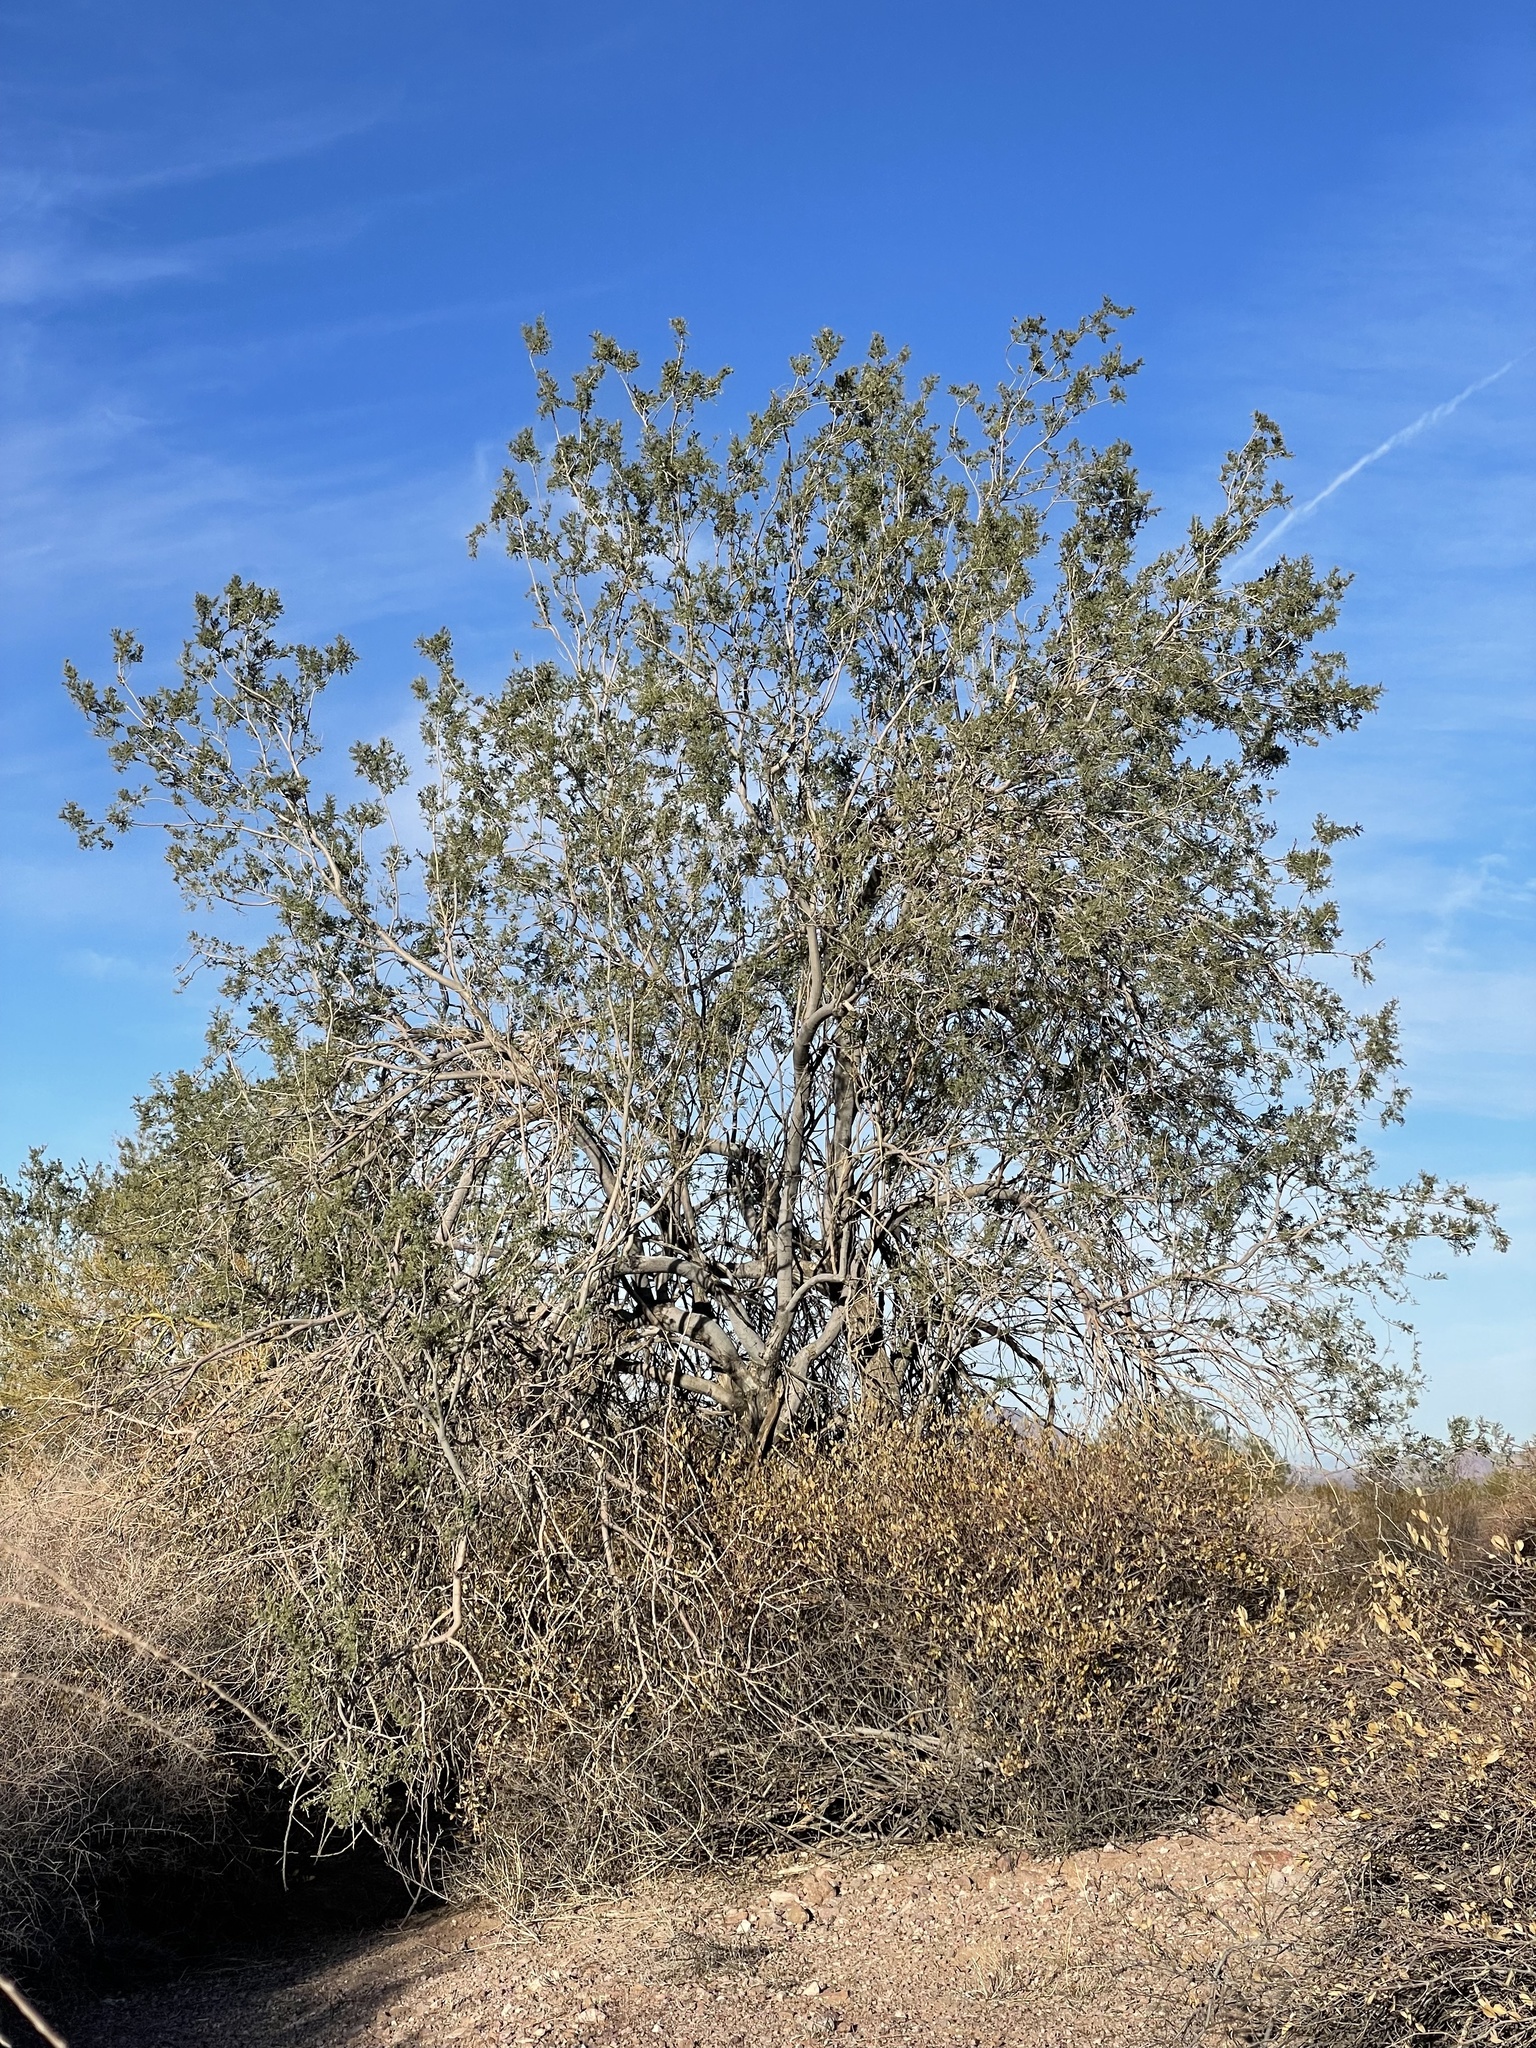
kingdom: Plantae
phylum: Tracheophyta
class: Magnoliopsida
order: Fabales
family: Fabaceae
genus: Olneya
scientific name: Olneya tesota
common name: Desert ironwood
